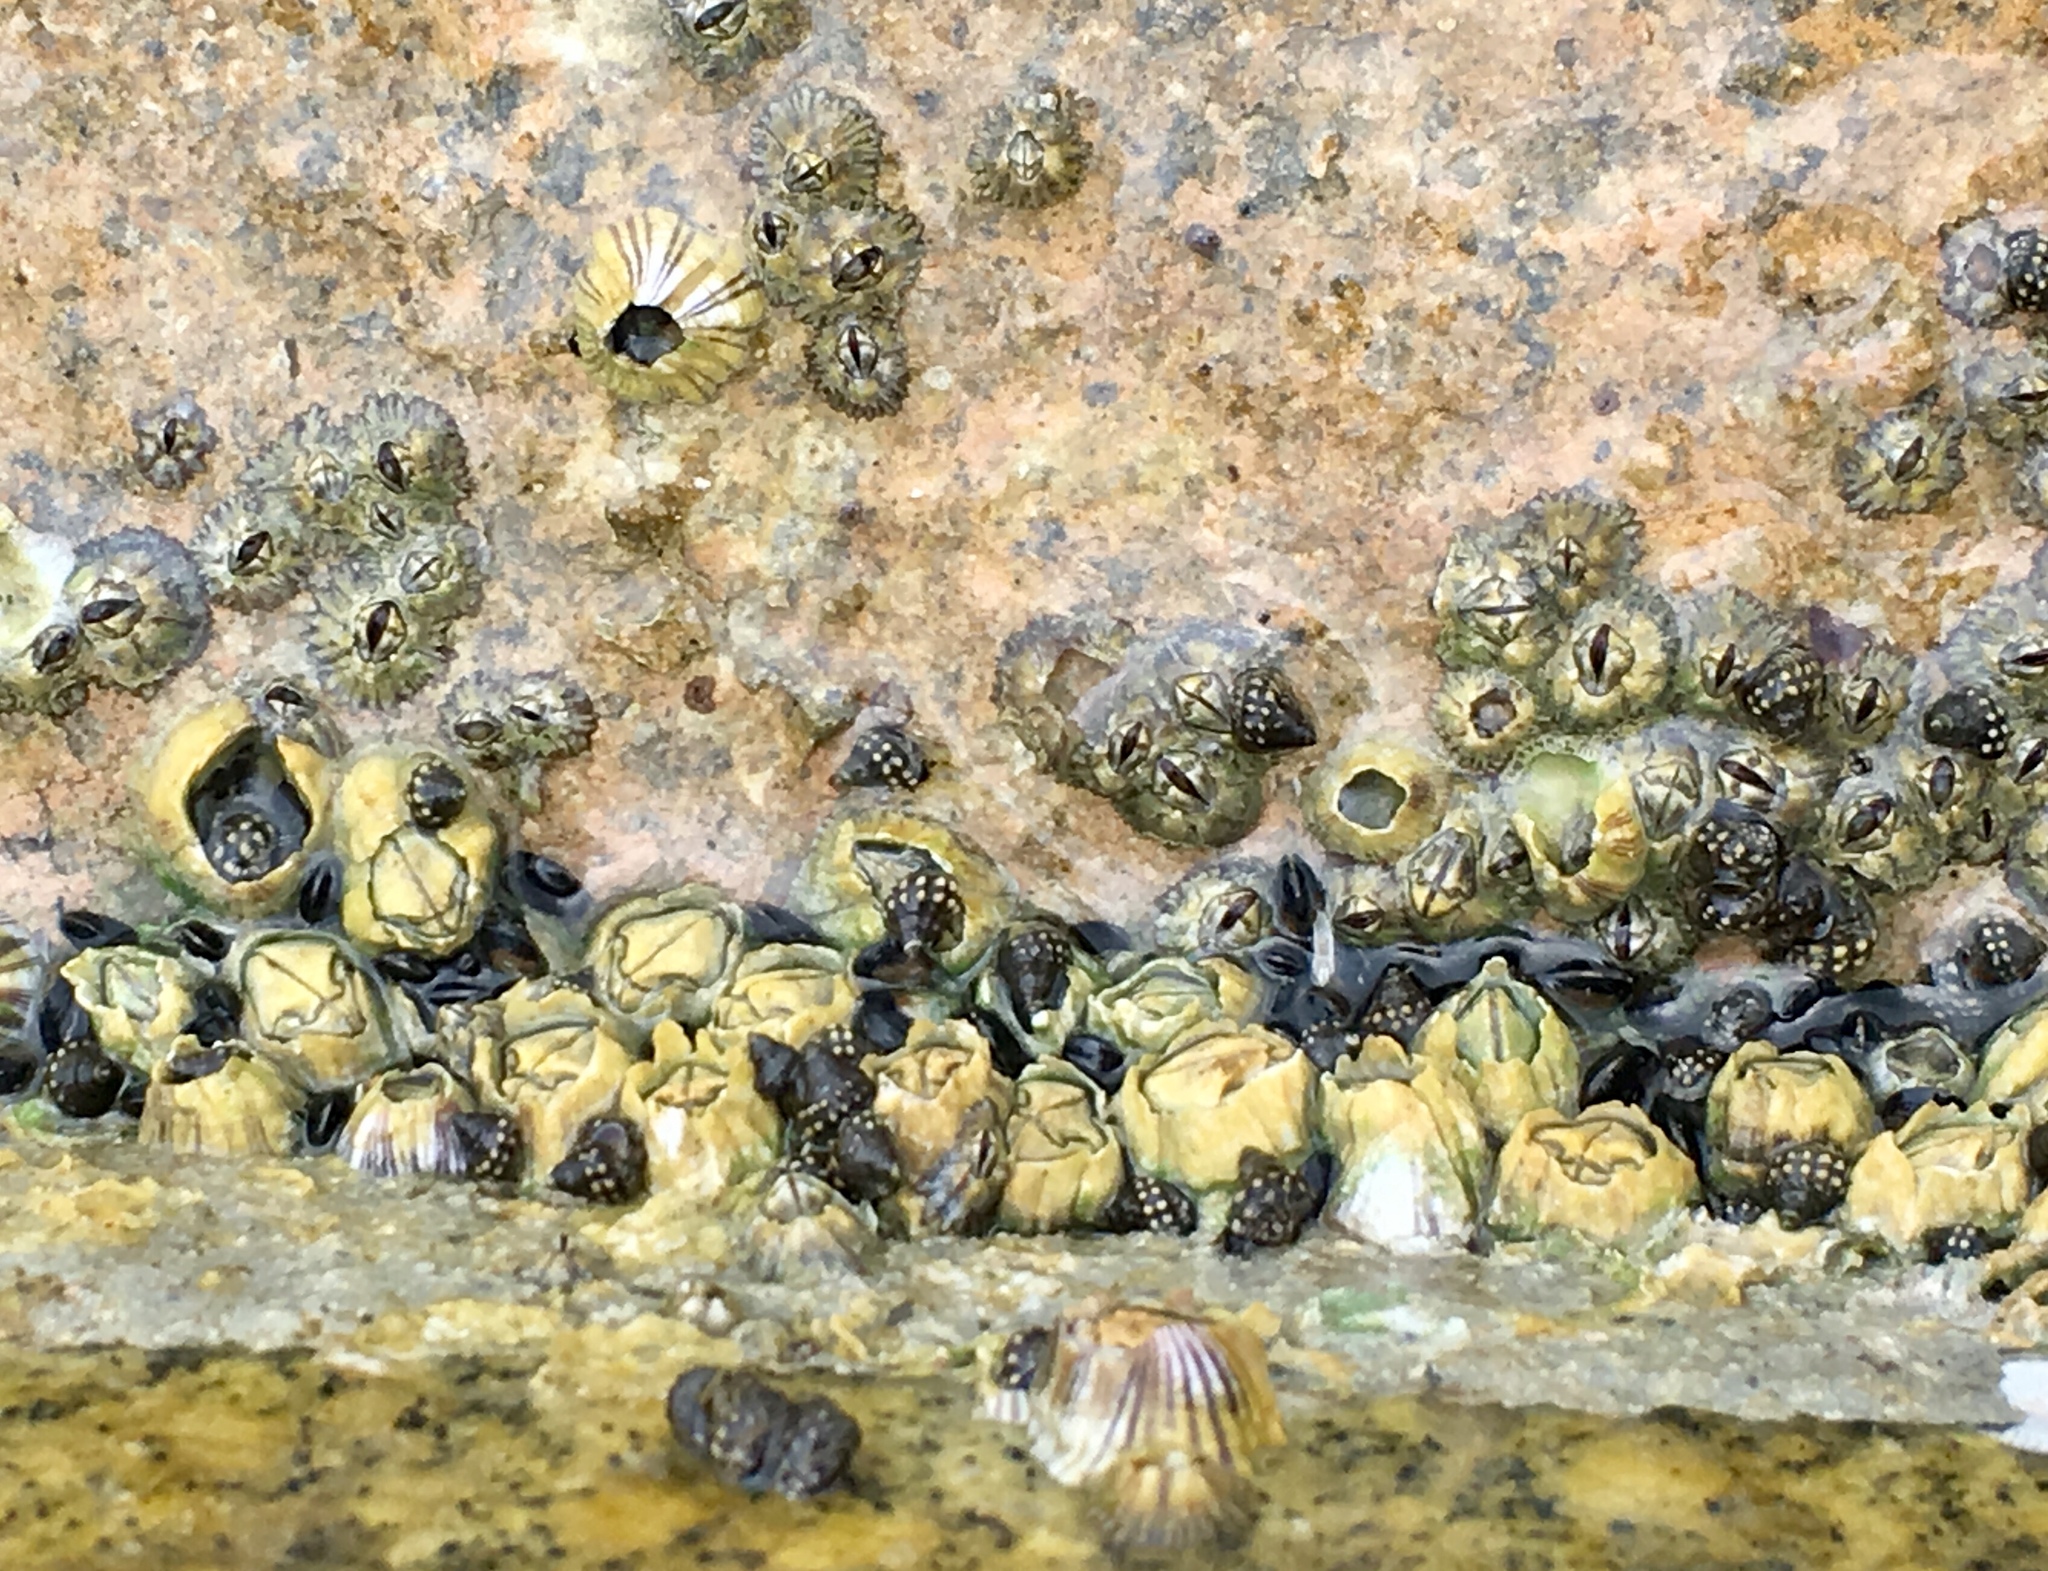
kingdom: Animalia
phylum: Arthropoda
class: Maxillopoda
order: Sessilia
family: Balanidae
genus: Amphibalanus
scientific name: Amphibalanus amphitrite
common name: Striped acorn barnacle
